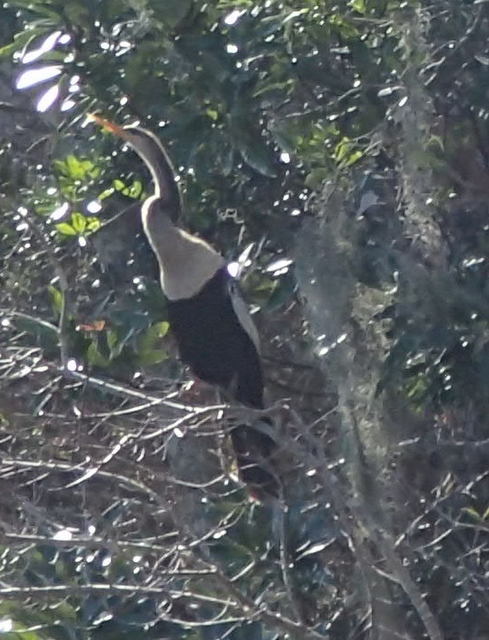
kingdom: Animalia
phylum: Chordata
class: Aves
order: Suliformes
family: Anhingidae
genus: Anhinga
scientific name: Anhinga anhinga
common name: Anhinga
